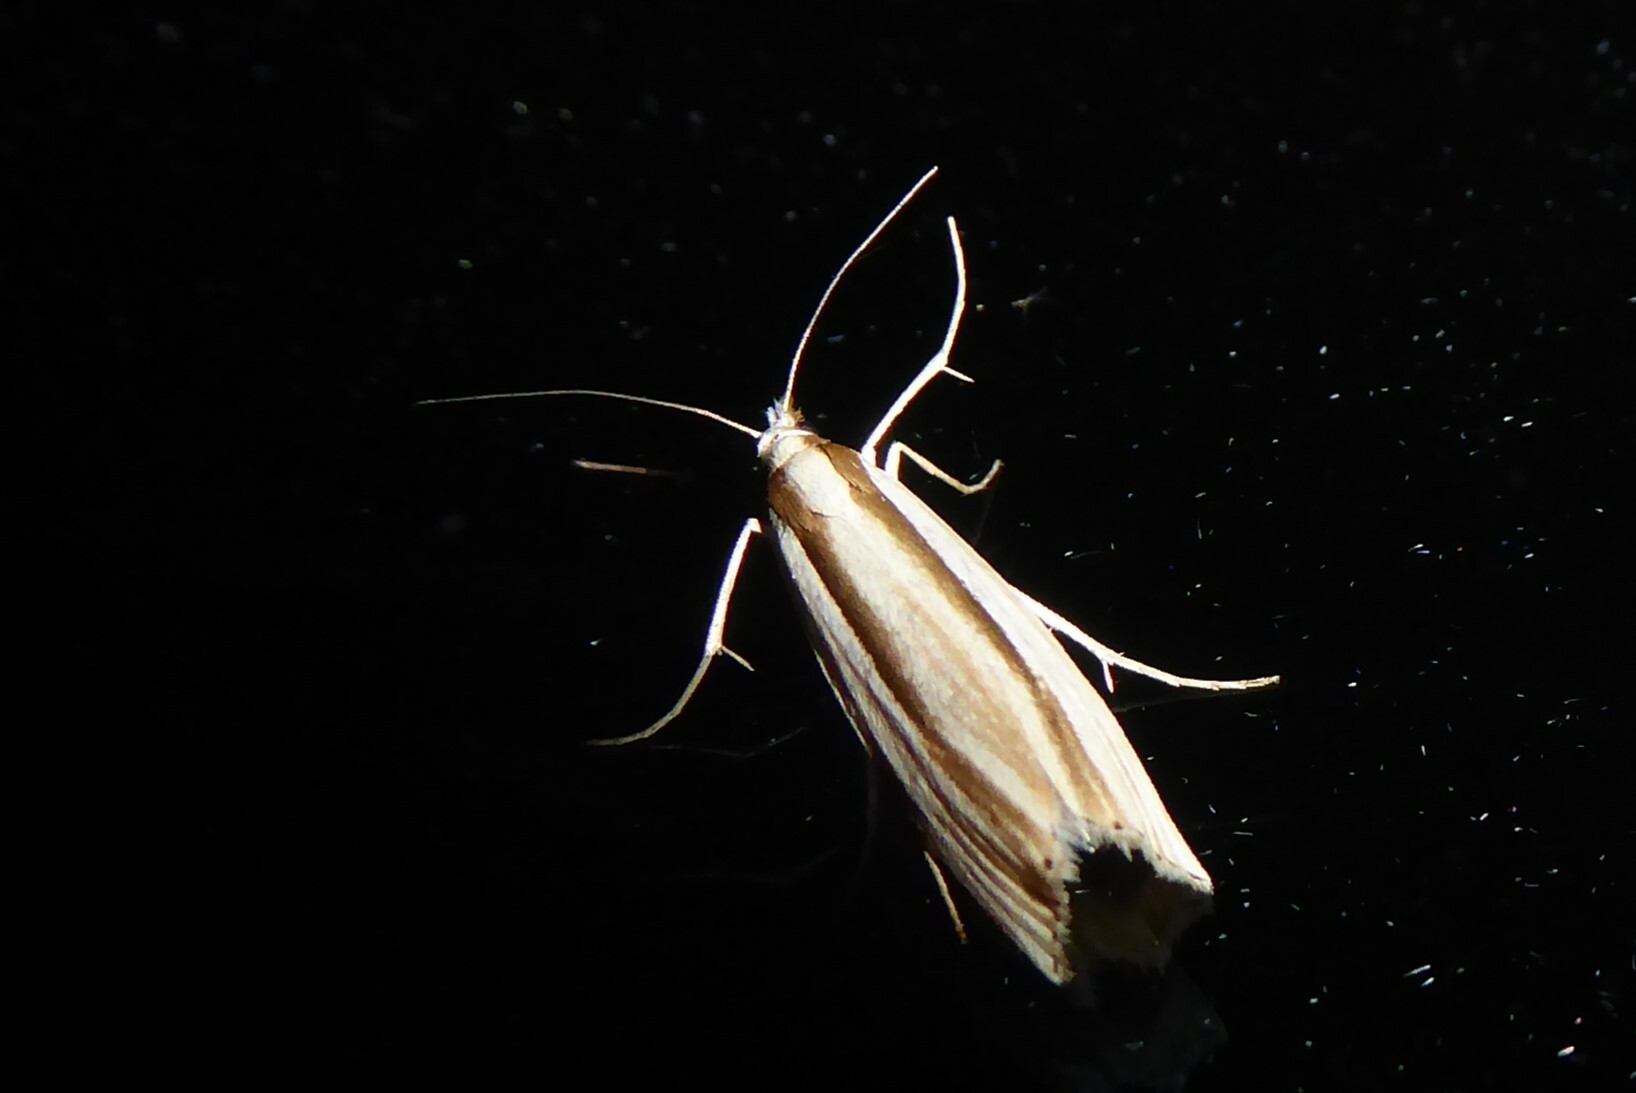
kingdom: Animalia
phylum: Arthropoda
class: Insecta
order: Lepidoptera
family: Crambidae
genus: Orocrambus
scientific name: Orocrambus ramosellus
